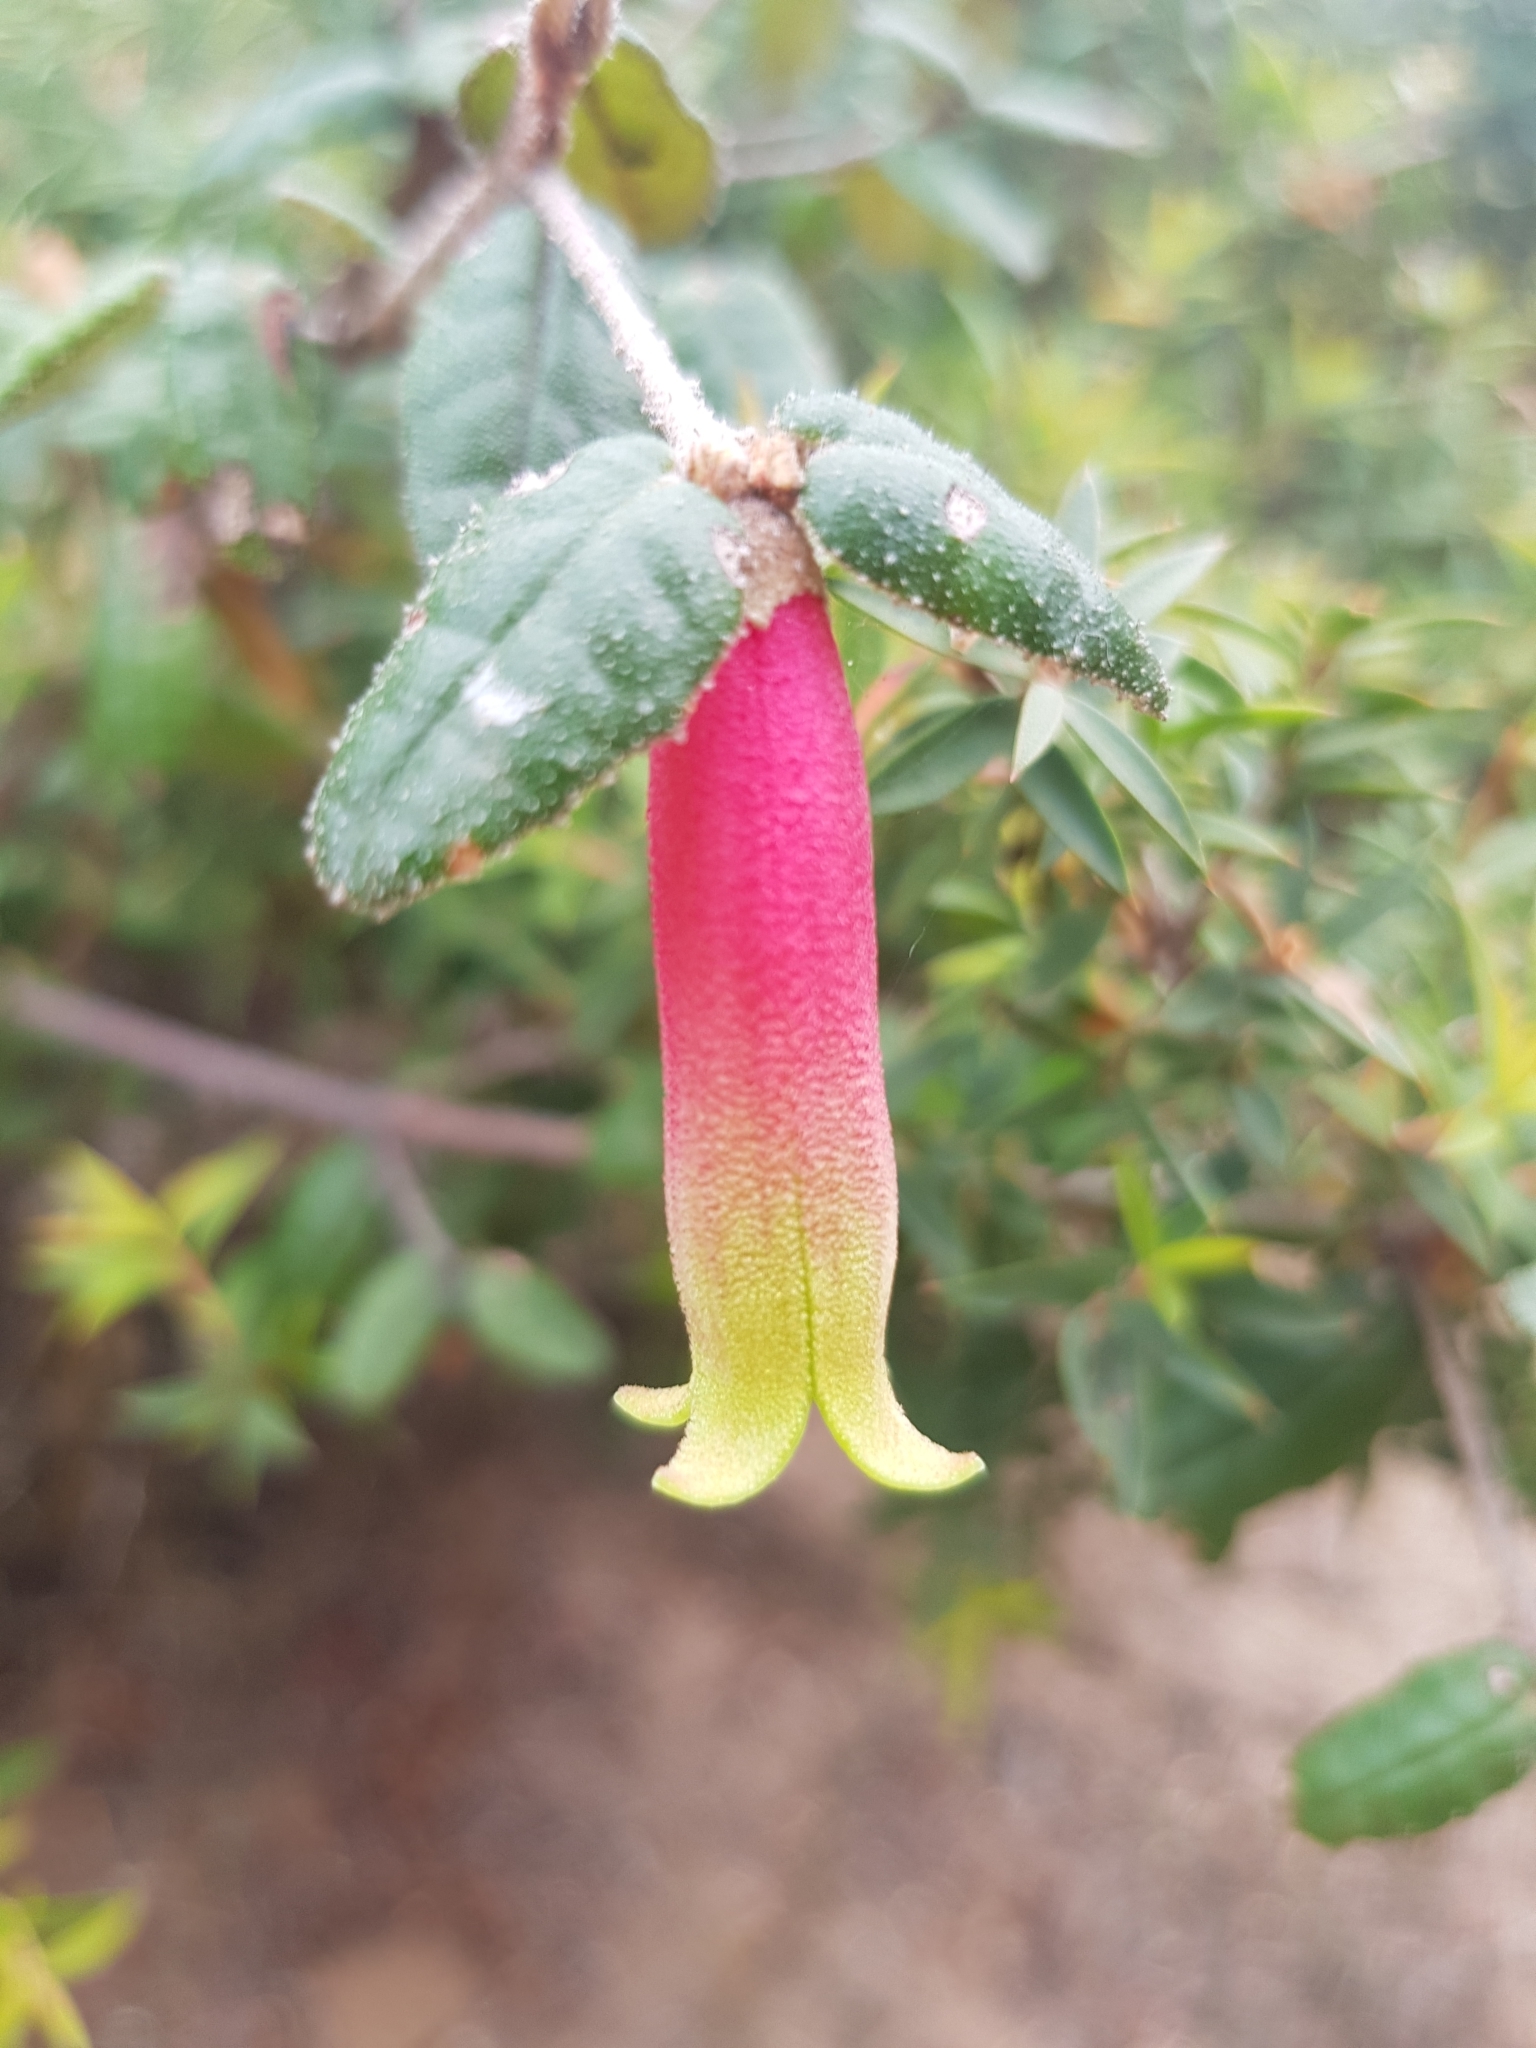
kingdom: Plantae
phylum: Tracheophyta
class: Magnoliopsida
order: Sapindales
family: Rutaceae
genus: Correa
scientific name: Correa reflexa
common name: Common correa
